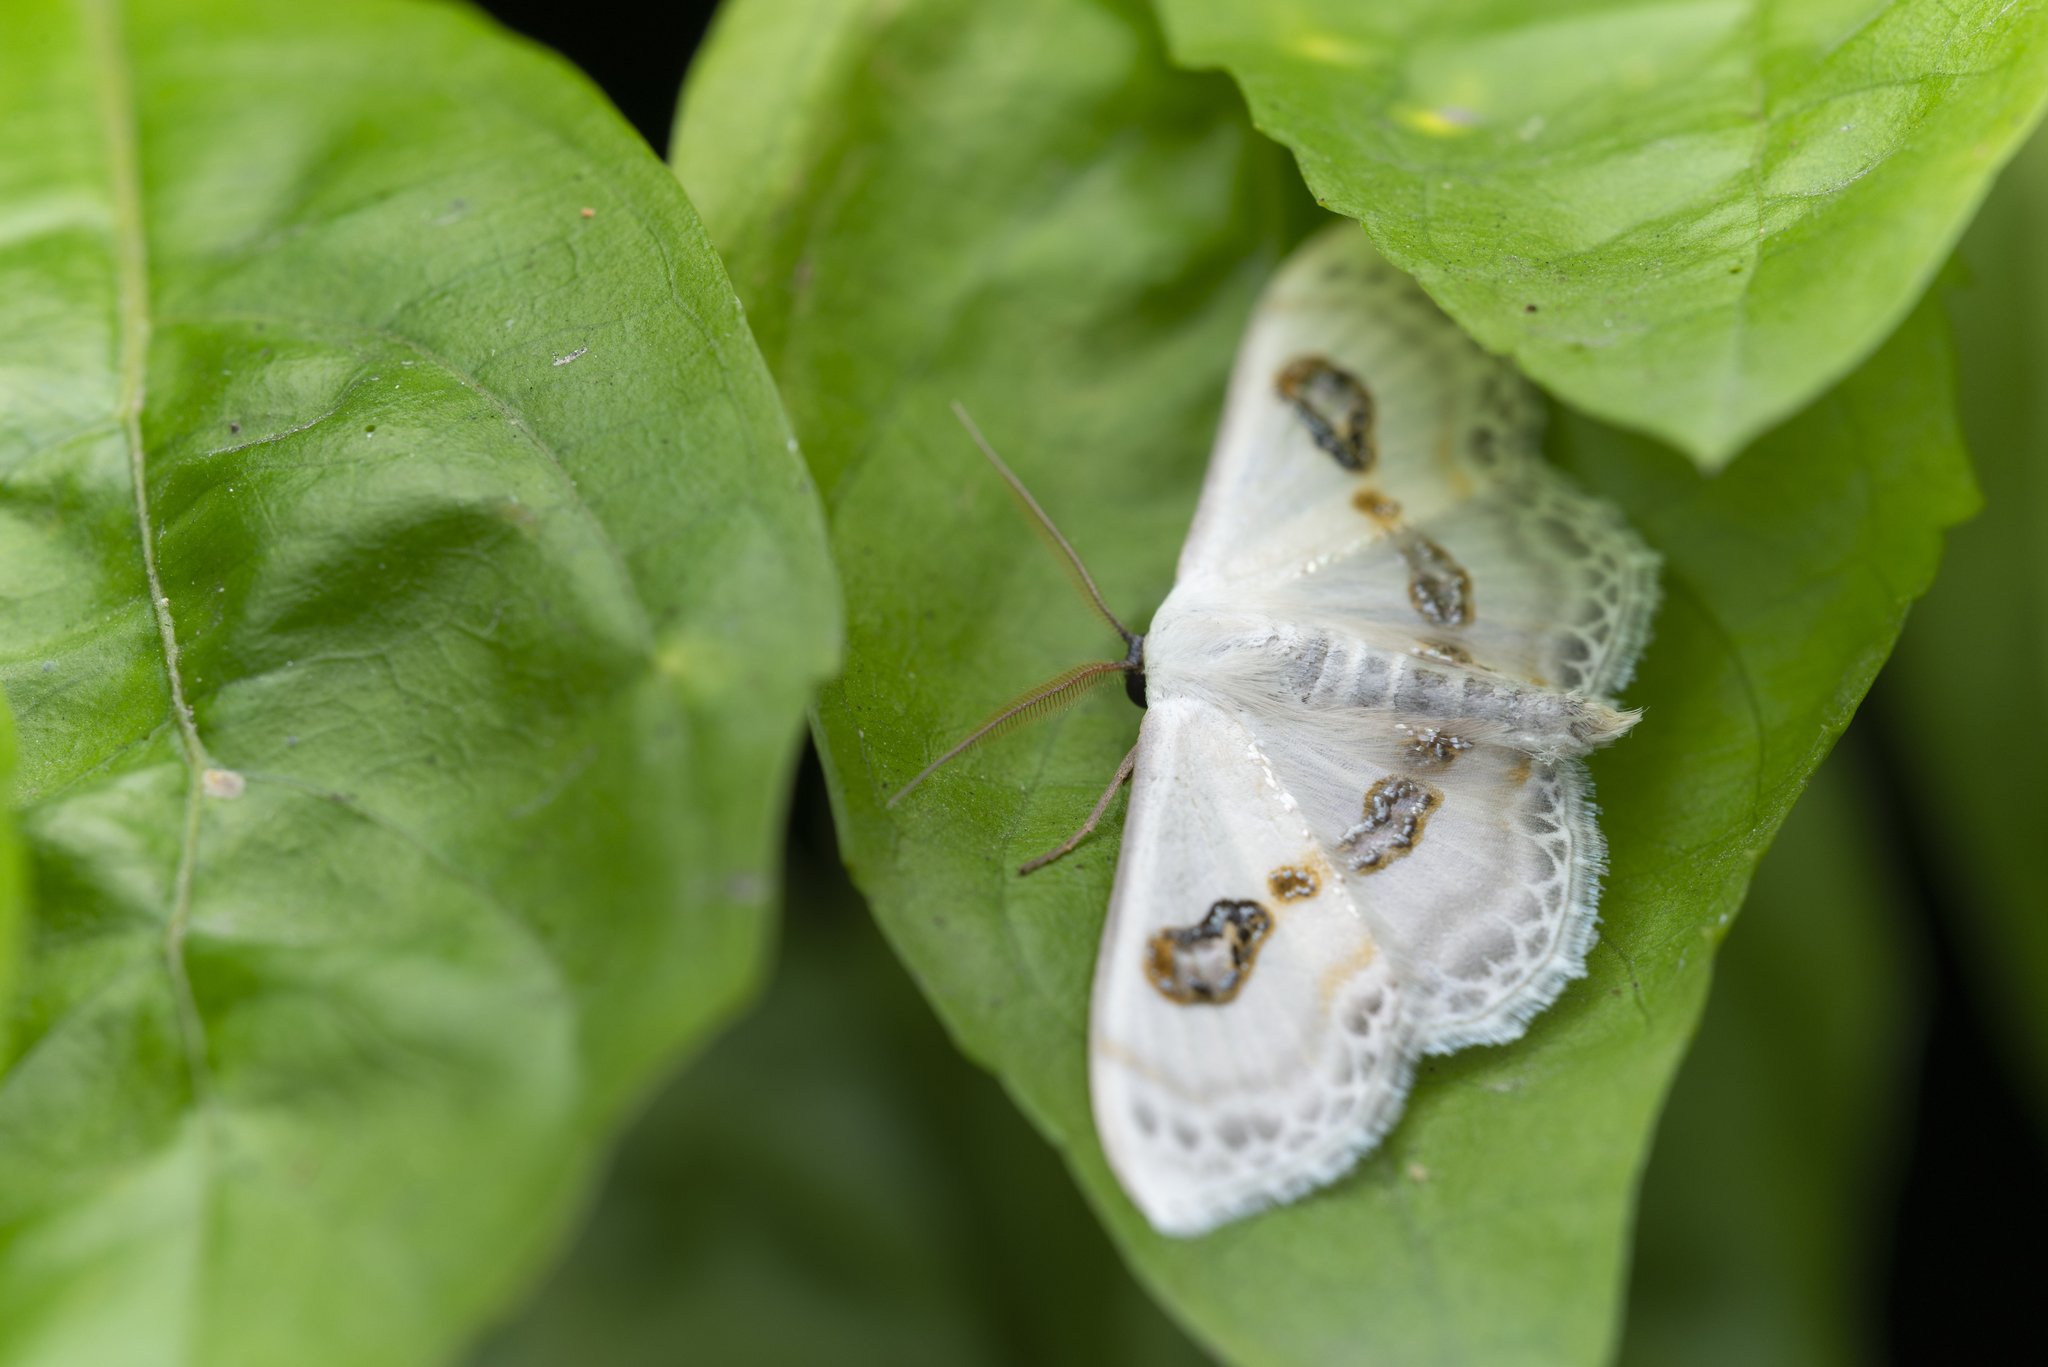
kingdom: Animalia
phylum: Arthropoda
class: Insecta
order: Lepidoptera
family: Geometridae
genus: Problepsis
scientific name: Problepsis vulgaris
